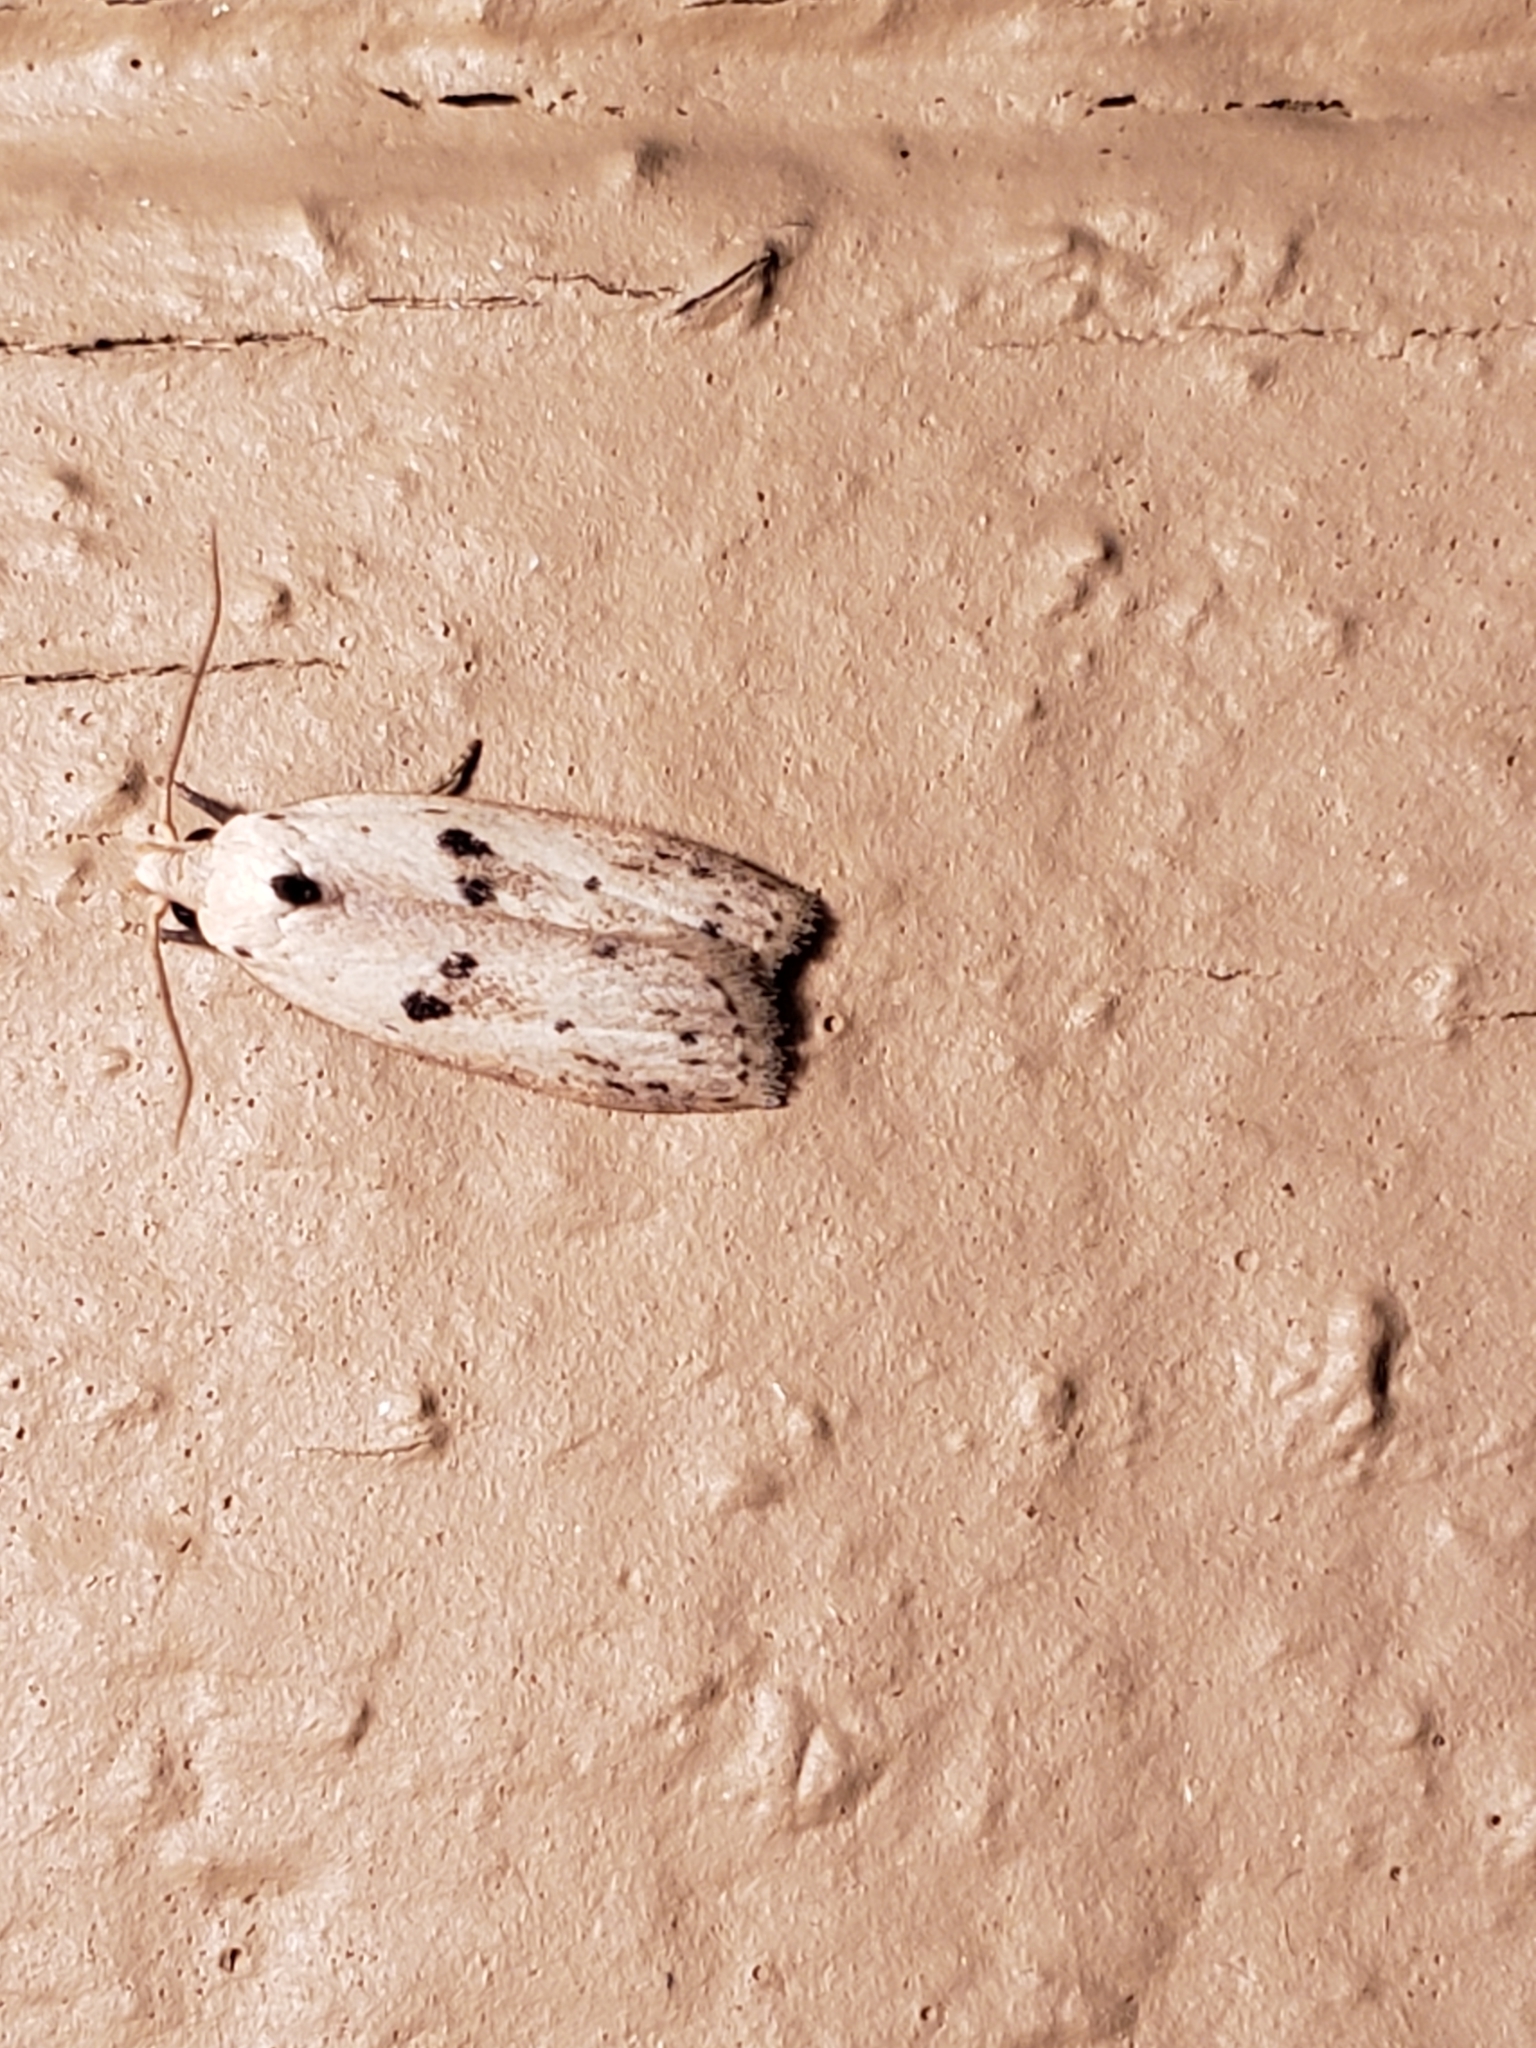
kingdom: Animalia
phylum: Arthropoda
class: Insecta
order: Lepidoptera
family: Peleopodidae
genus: Scythropiodes
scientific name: Scythropiodes issikii
